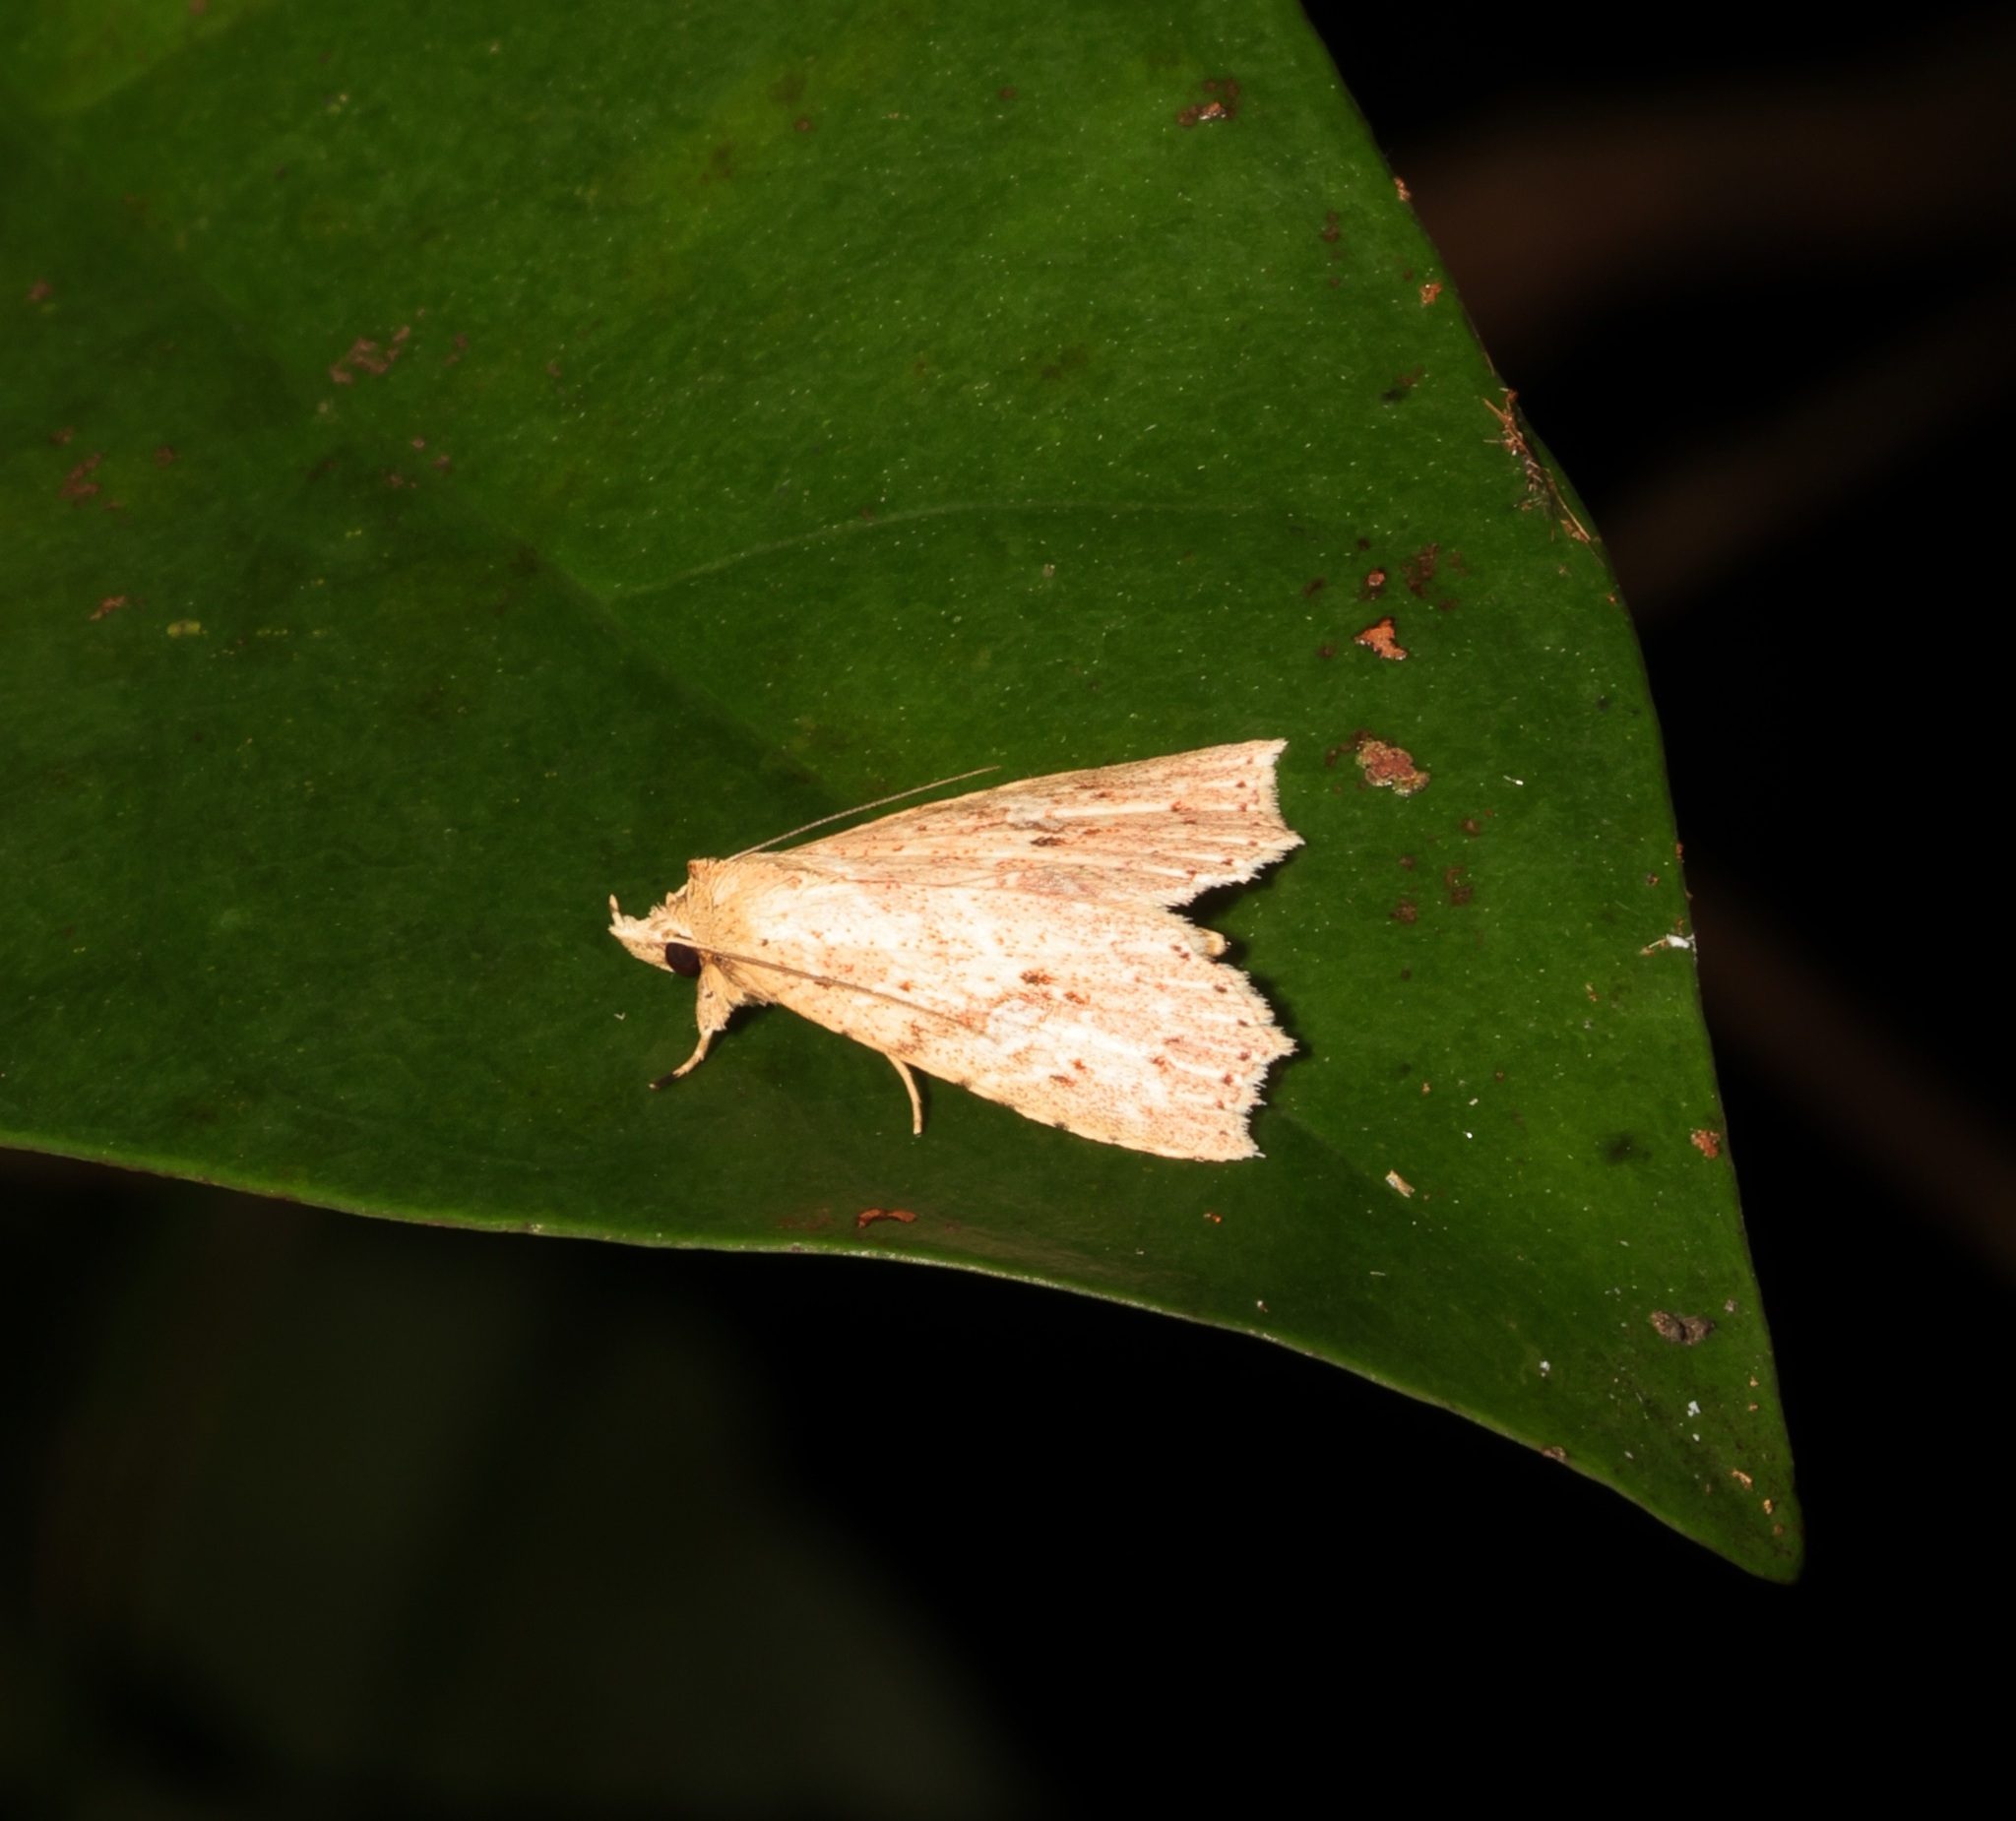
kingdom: Animalia
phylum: Arthropoda
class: Insecta
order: Lepidoptera
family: Erebidae
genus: Olulis
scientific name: Olulis puncticinctalis
